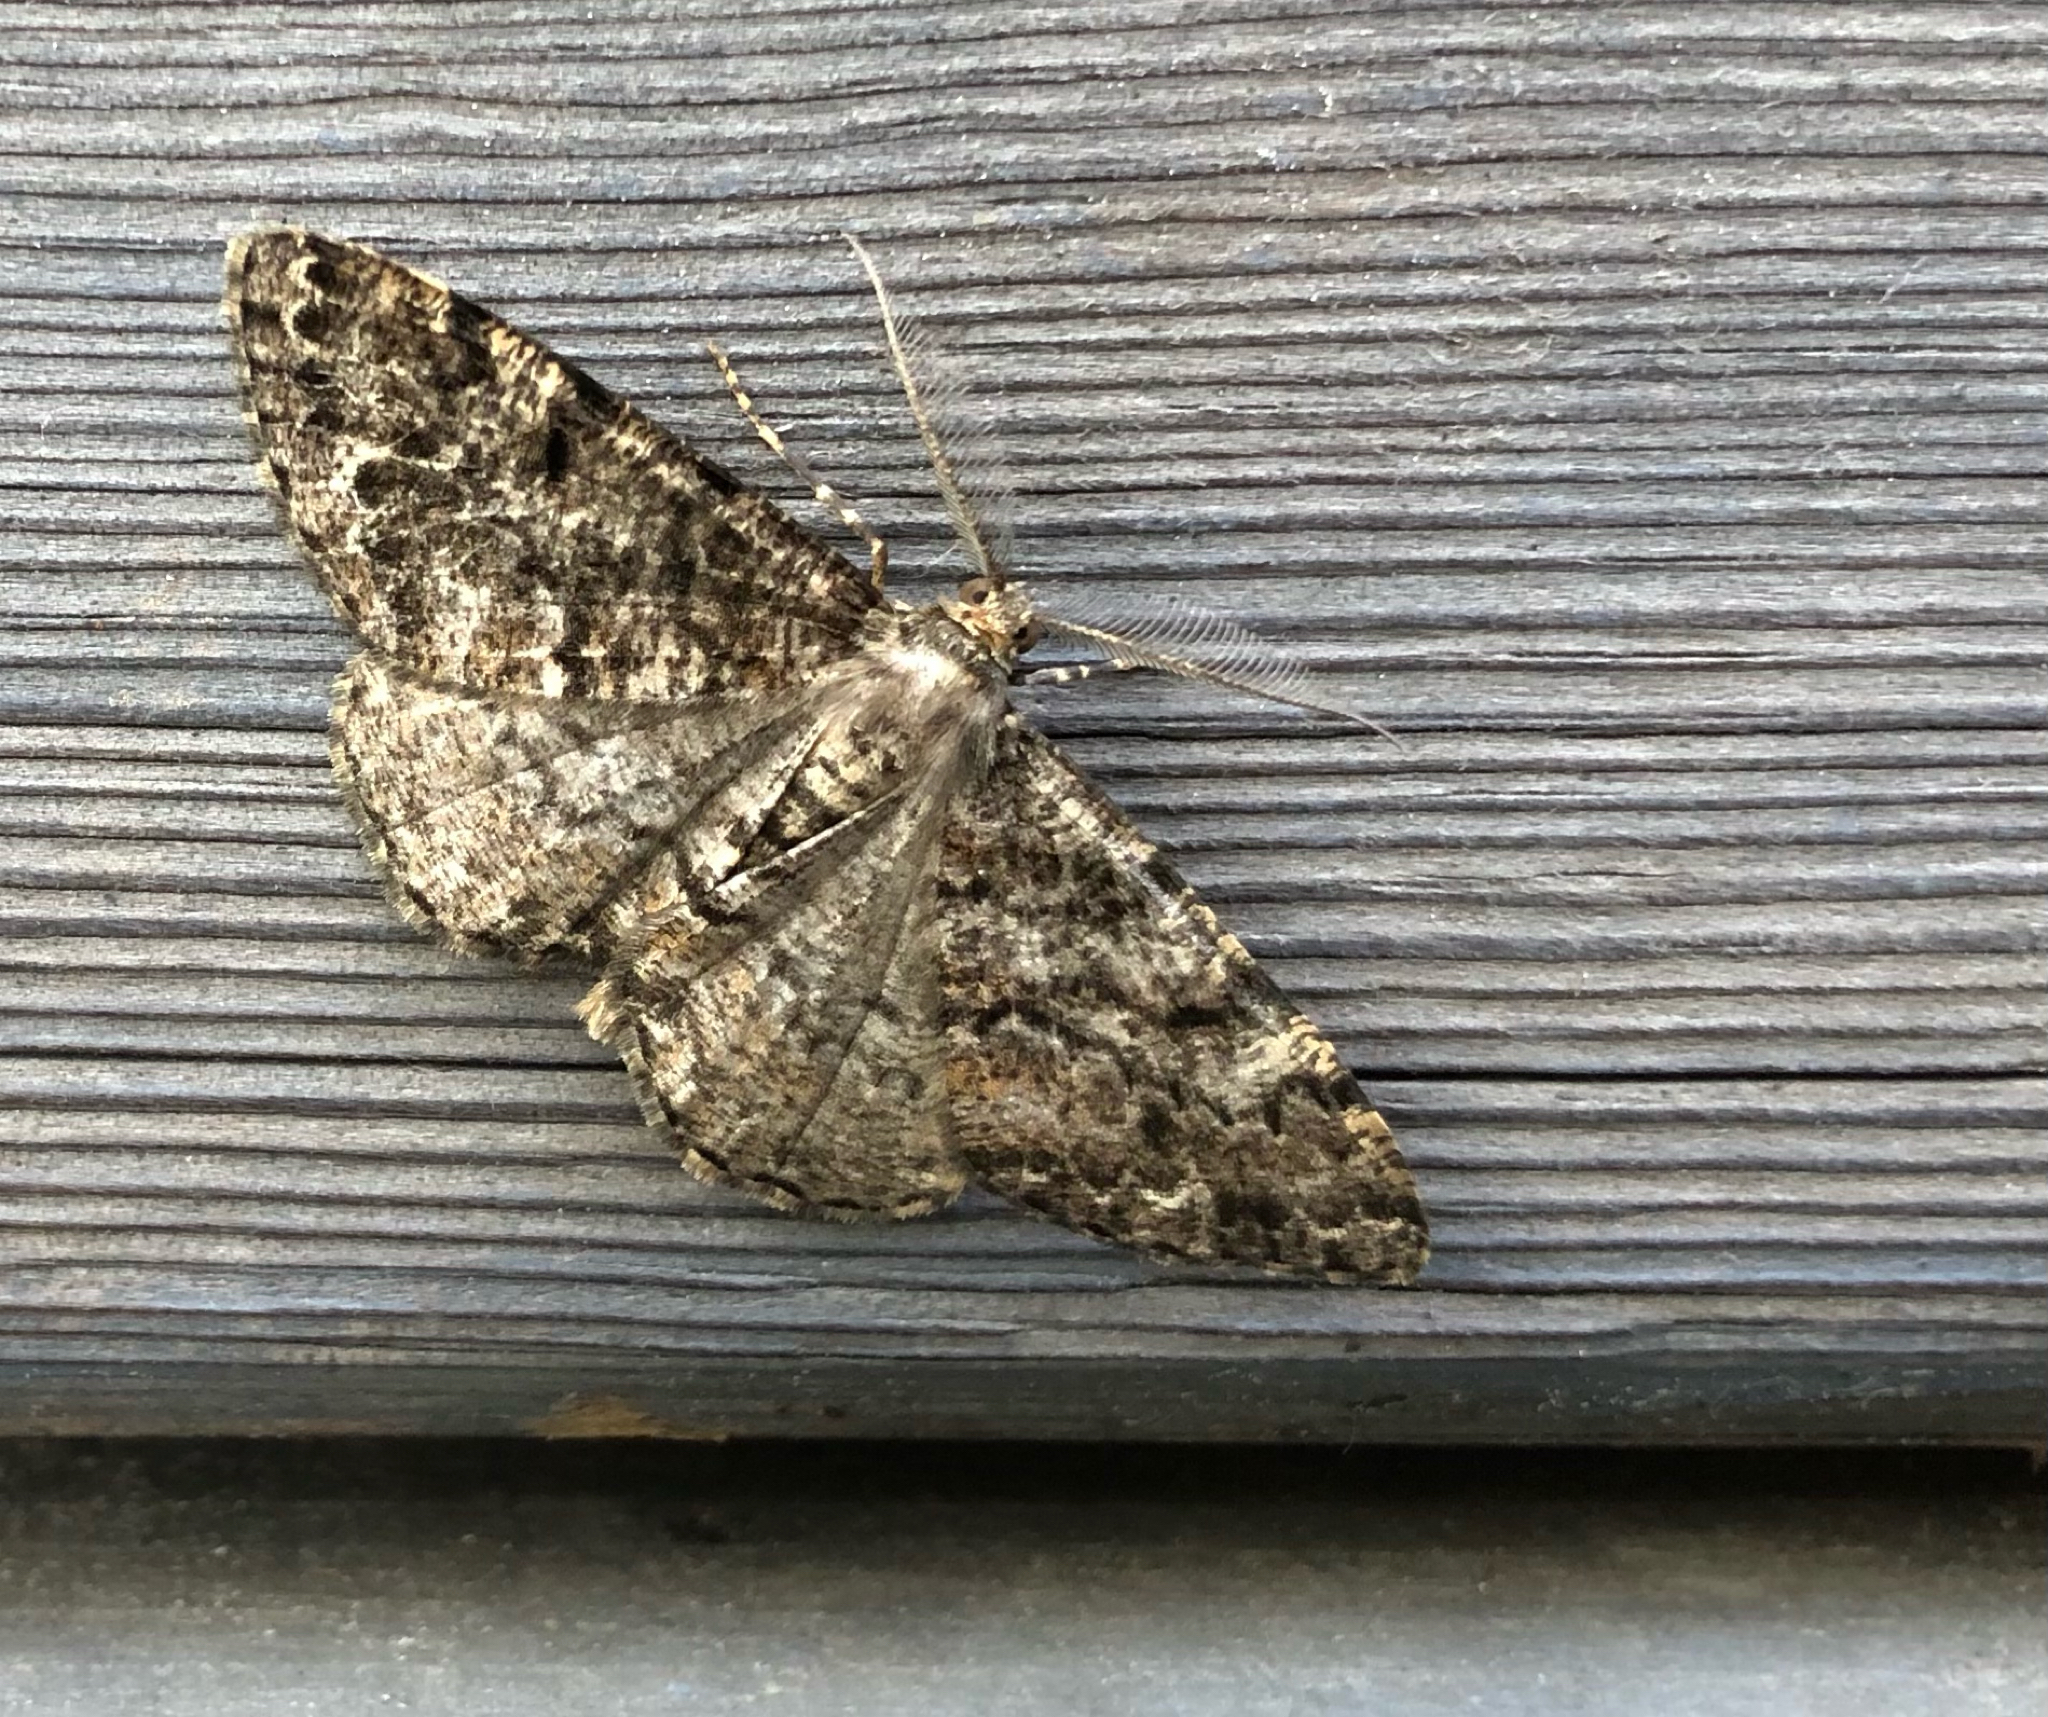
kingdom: Animalia
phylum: Arthropoda
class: Insecta
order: Lepidoptera
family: Geometridae
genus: Deileptenia
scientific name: Deileptenia ribeata
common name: Satin beauty
